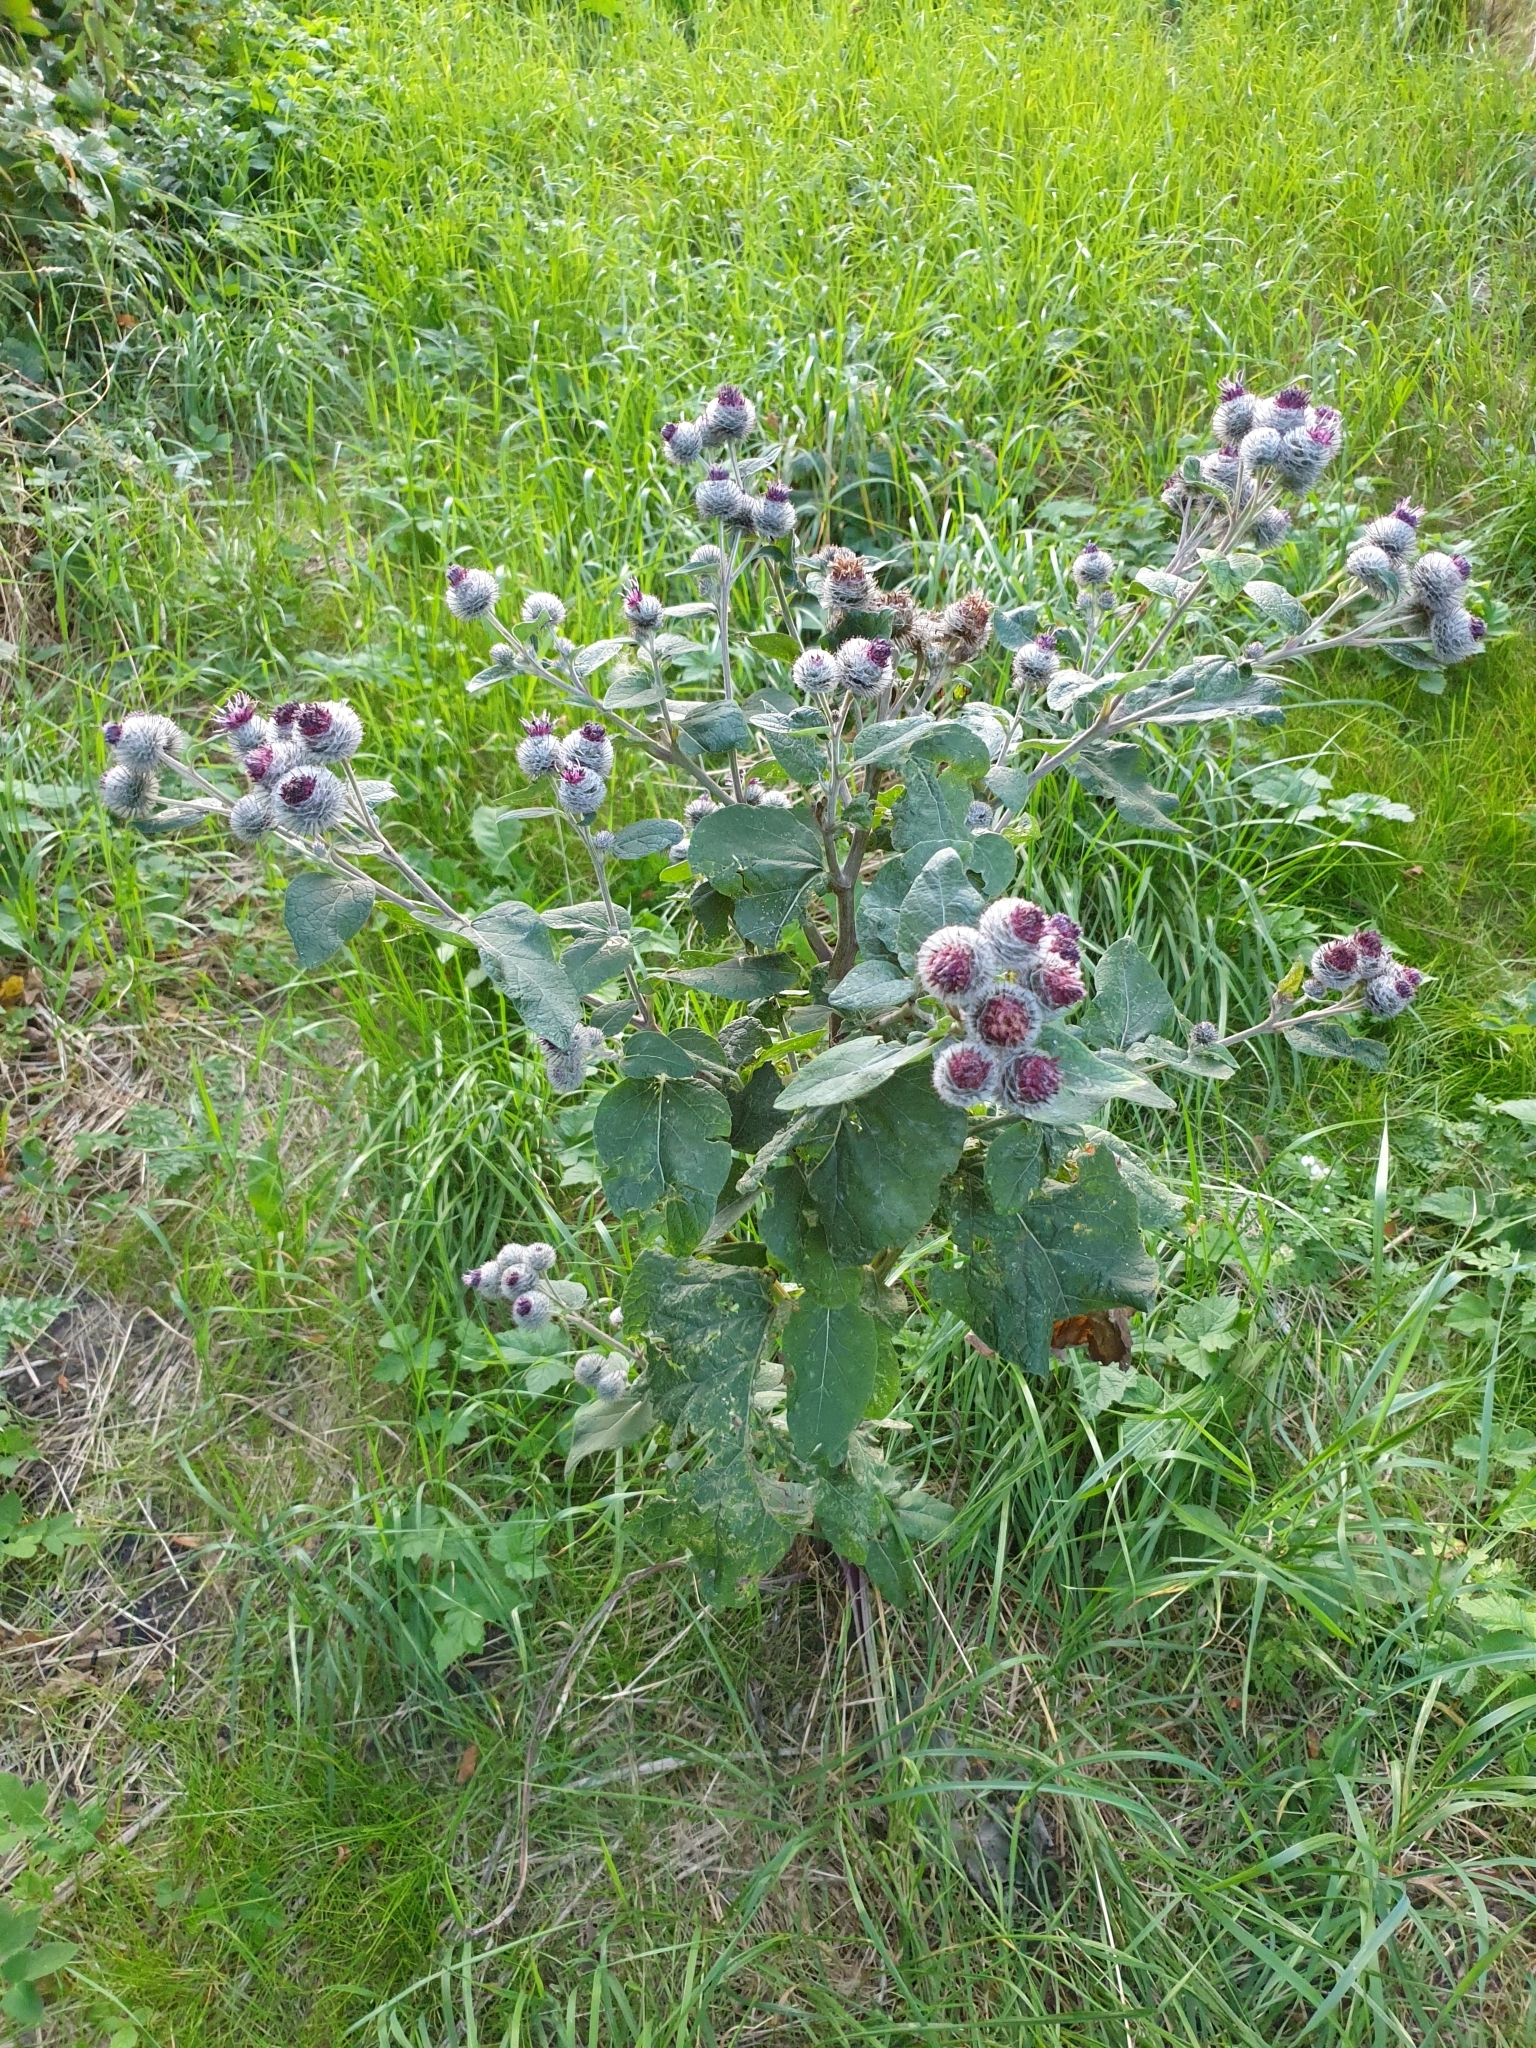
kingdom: Plantae
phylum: Tracheophyta
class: Magnoliopsida
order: Asterales
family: Asteraceae
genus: Arctium
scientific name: Arctium tomentosum
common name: Woolly burdock
